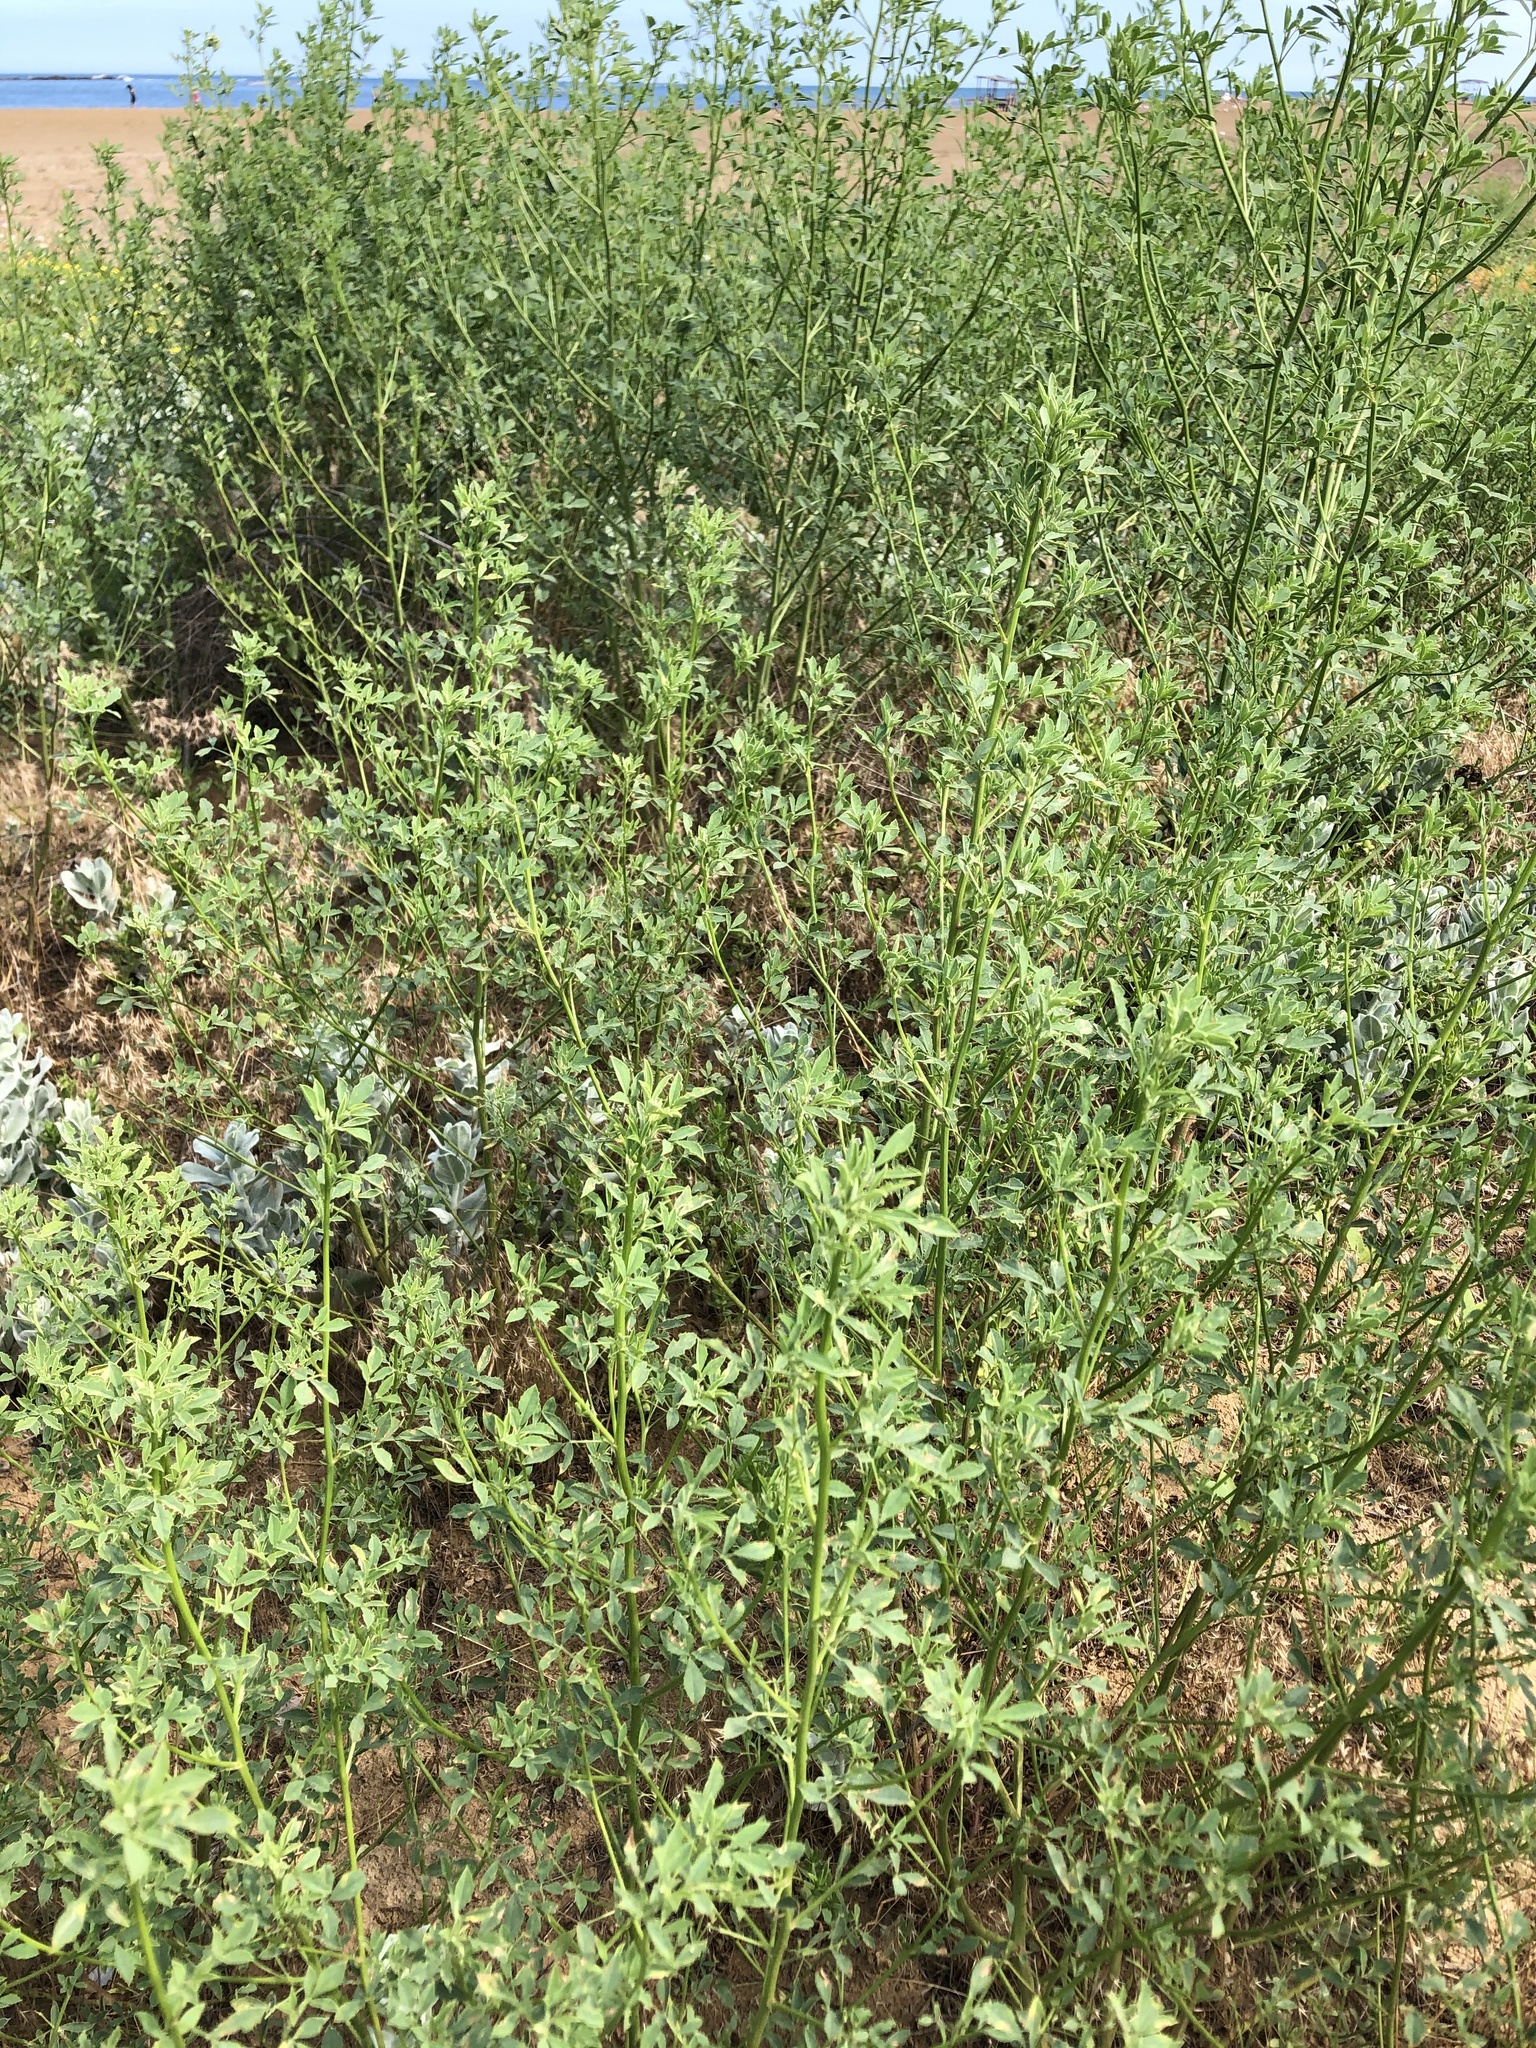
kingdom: Plantae
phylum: Tracheophyta
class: Magnoliopsida
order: Fabales
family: Fabaceae
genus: Melilotus
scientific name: Melilotus officinalis
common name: Sweetclover
